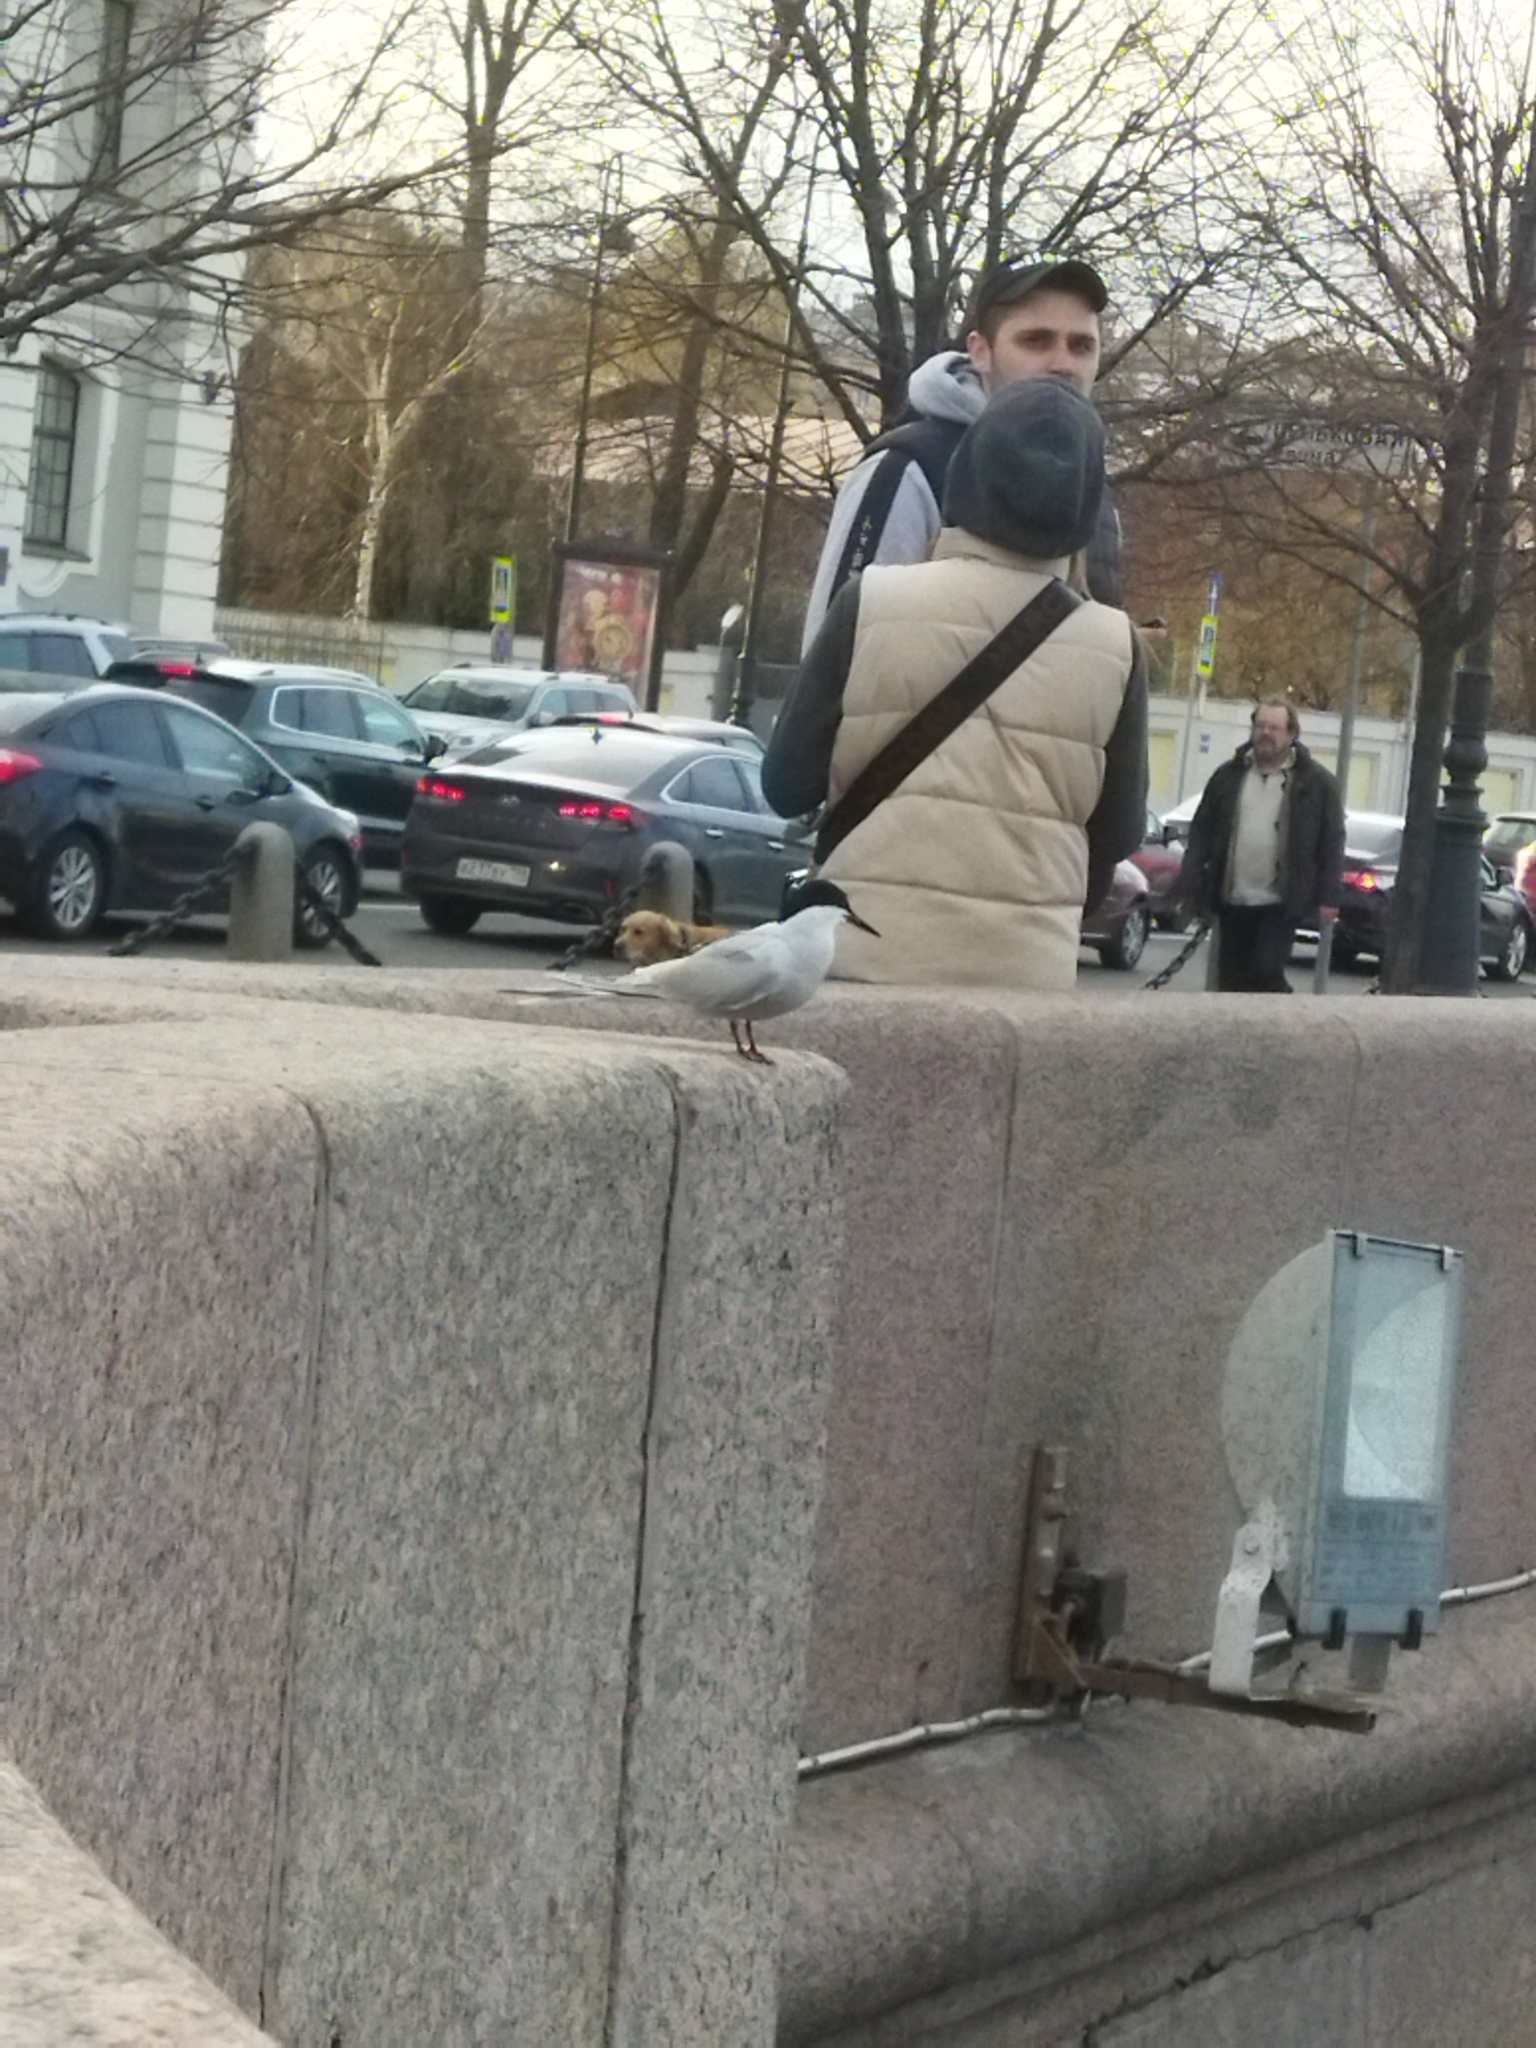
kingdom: Animalia
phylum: Chordata
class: Aves
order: Charadriiformes
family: Laridae
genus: Sterna
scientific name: Sterna hirundo
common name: Common tern
